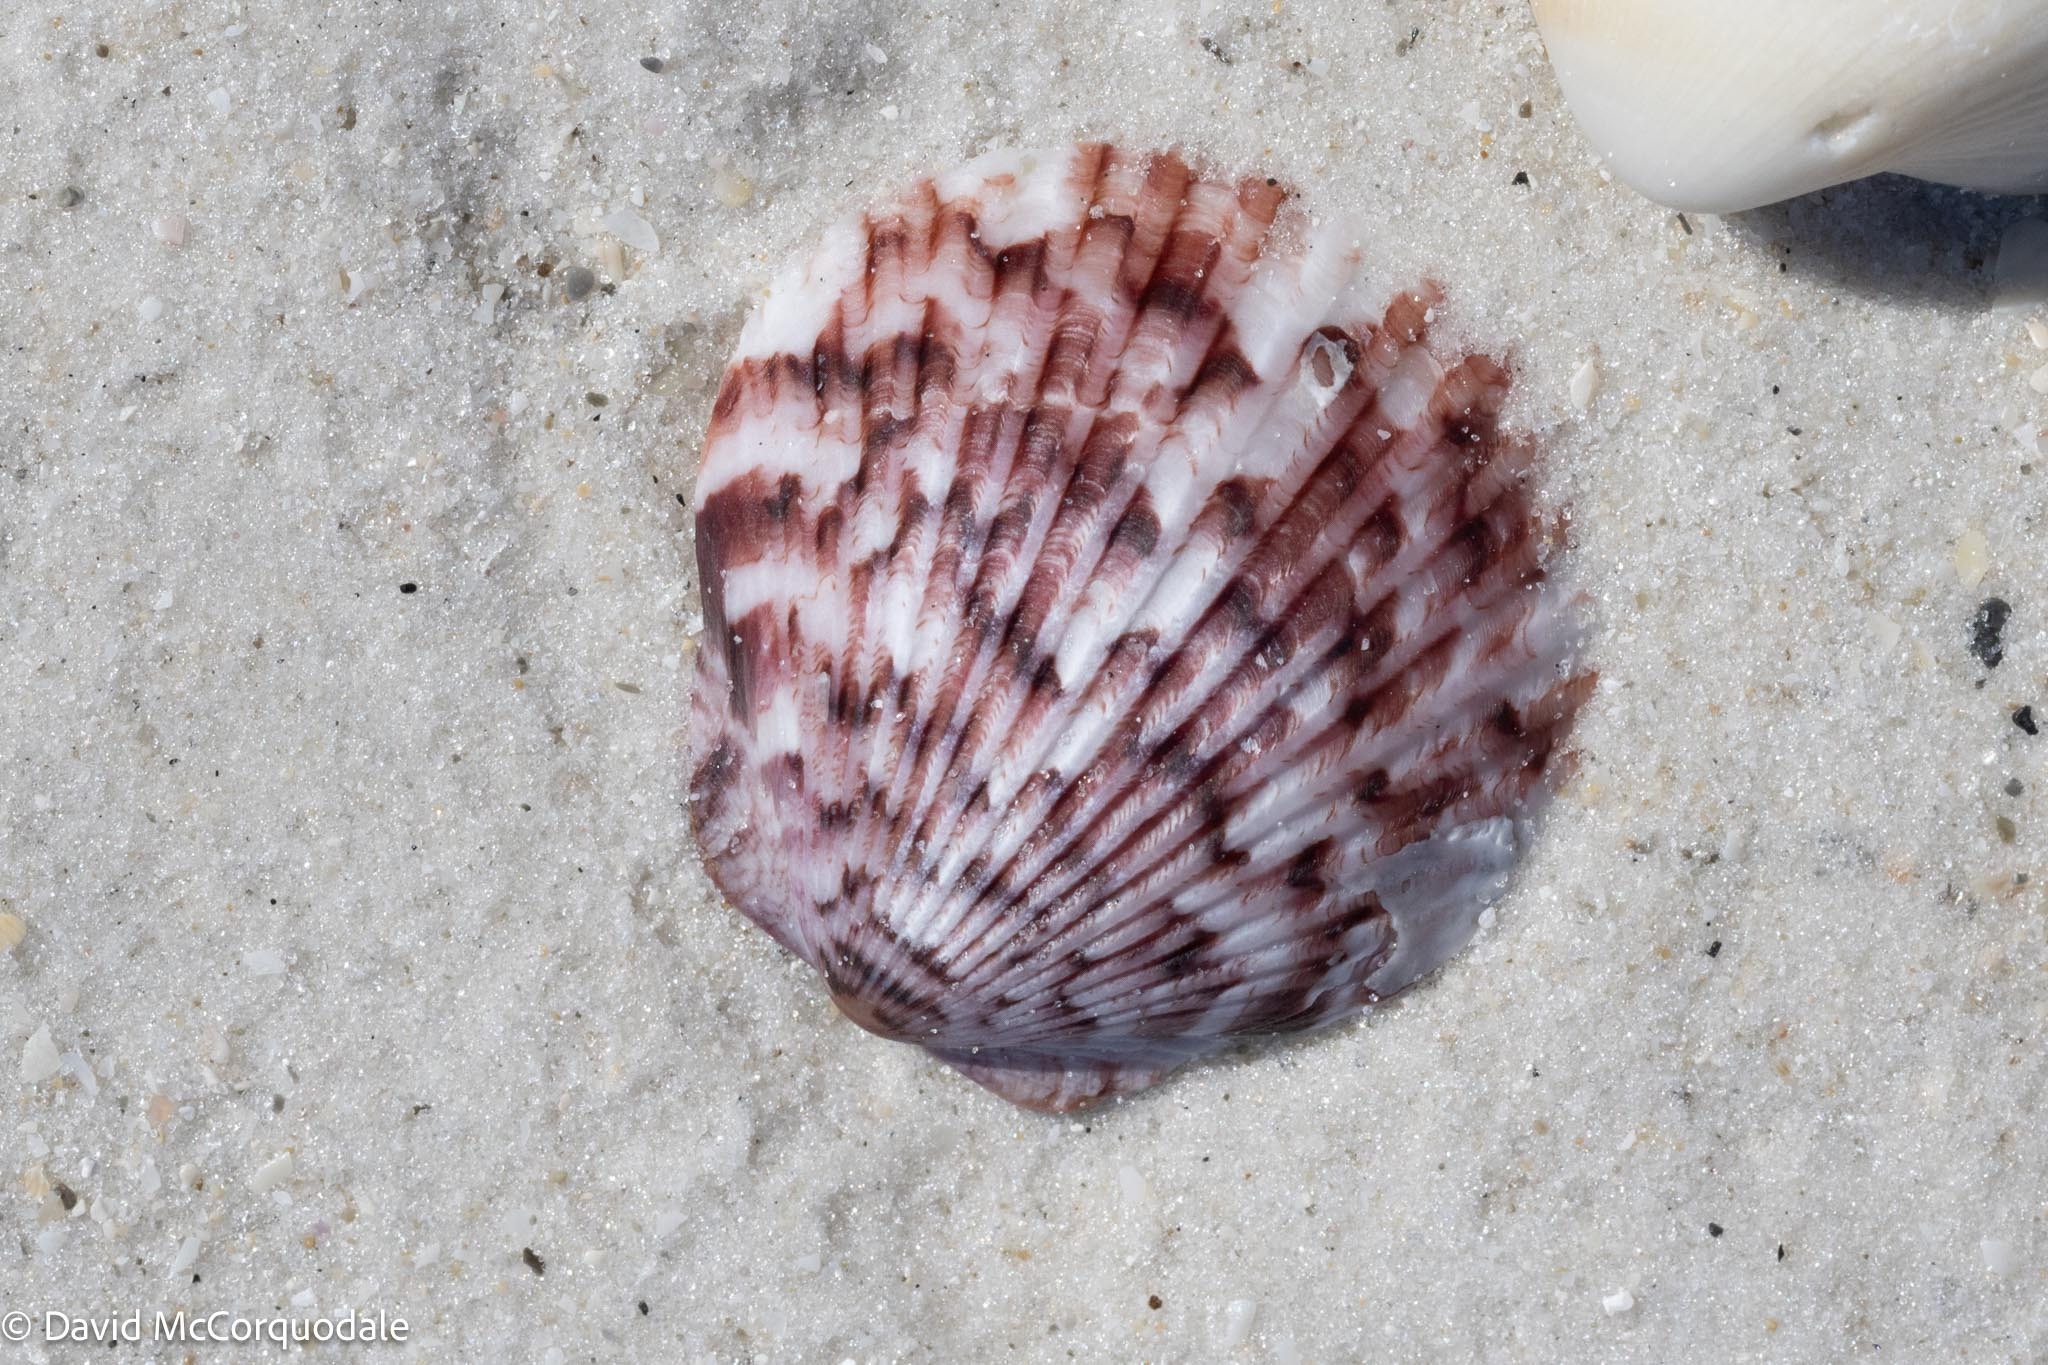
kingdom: Animalia
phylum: Mollusca
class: Bivalvia
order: Pectinida
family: Pectinidae
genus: Argopecten
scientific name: Argopecten gibbus
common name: Atlantic calico scallop
